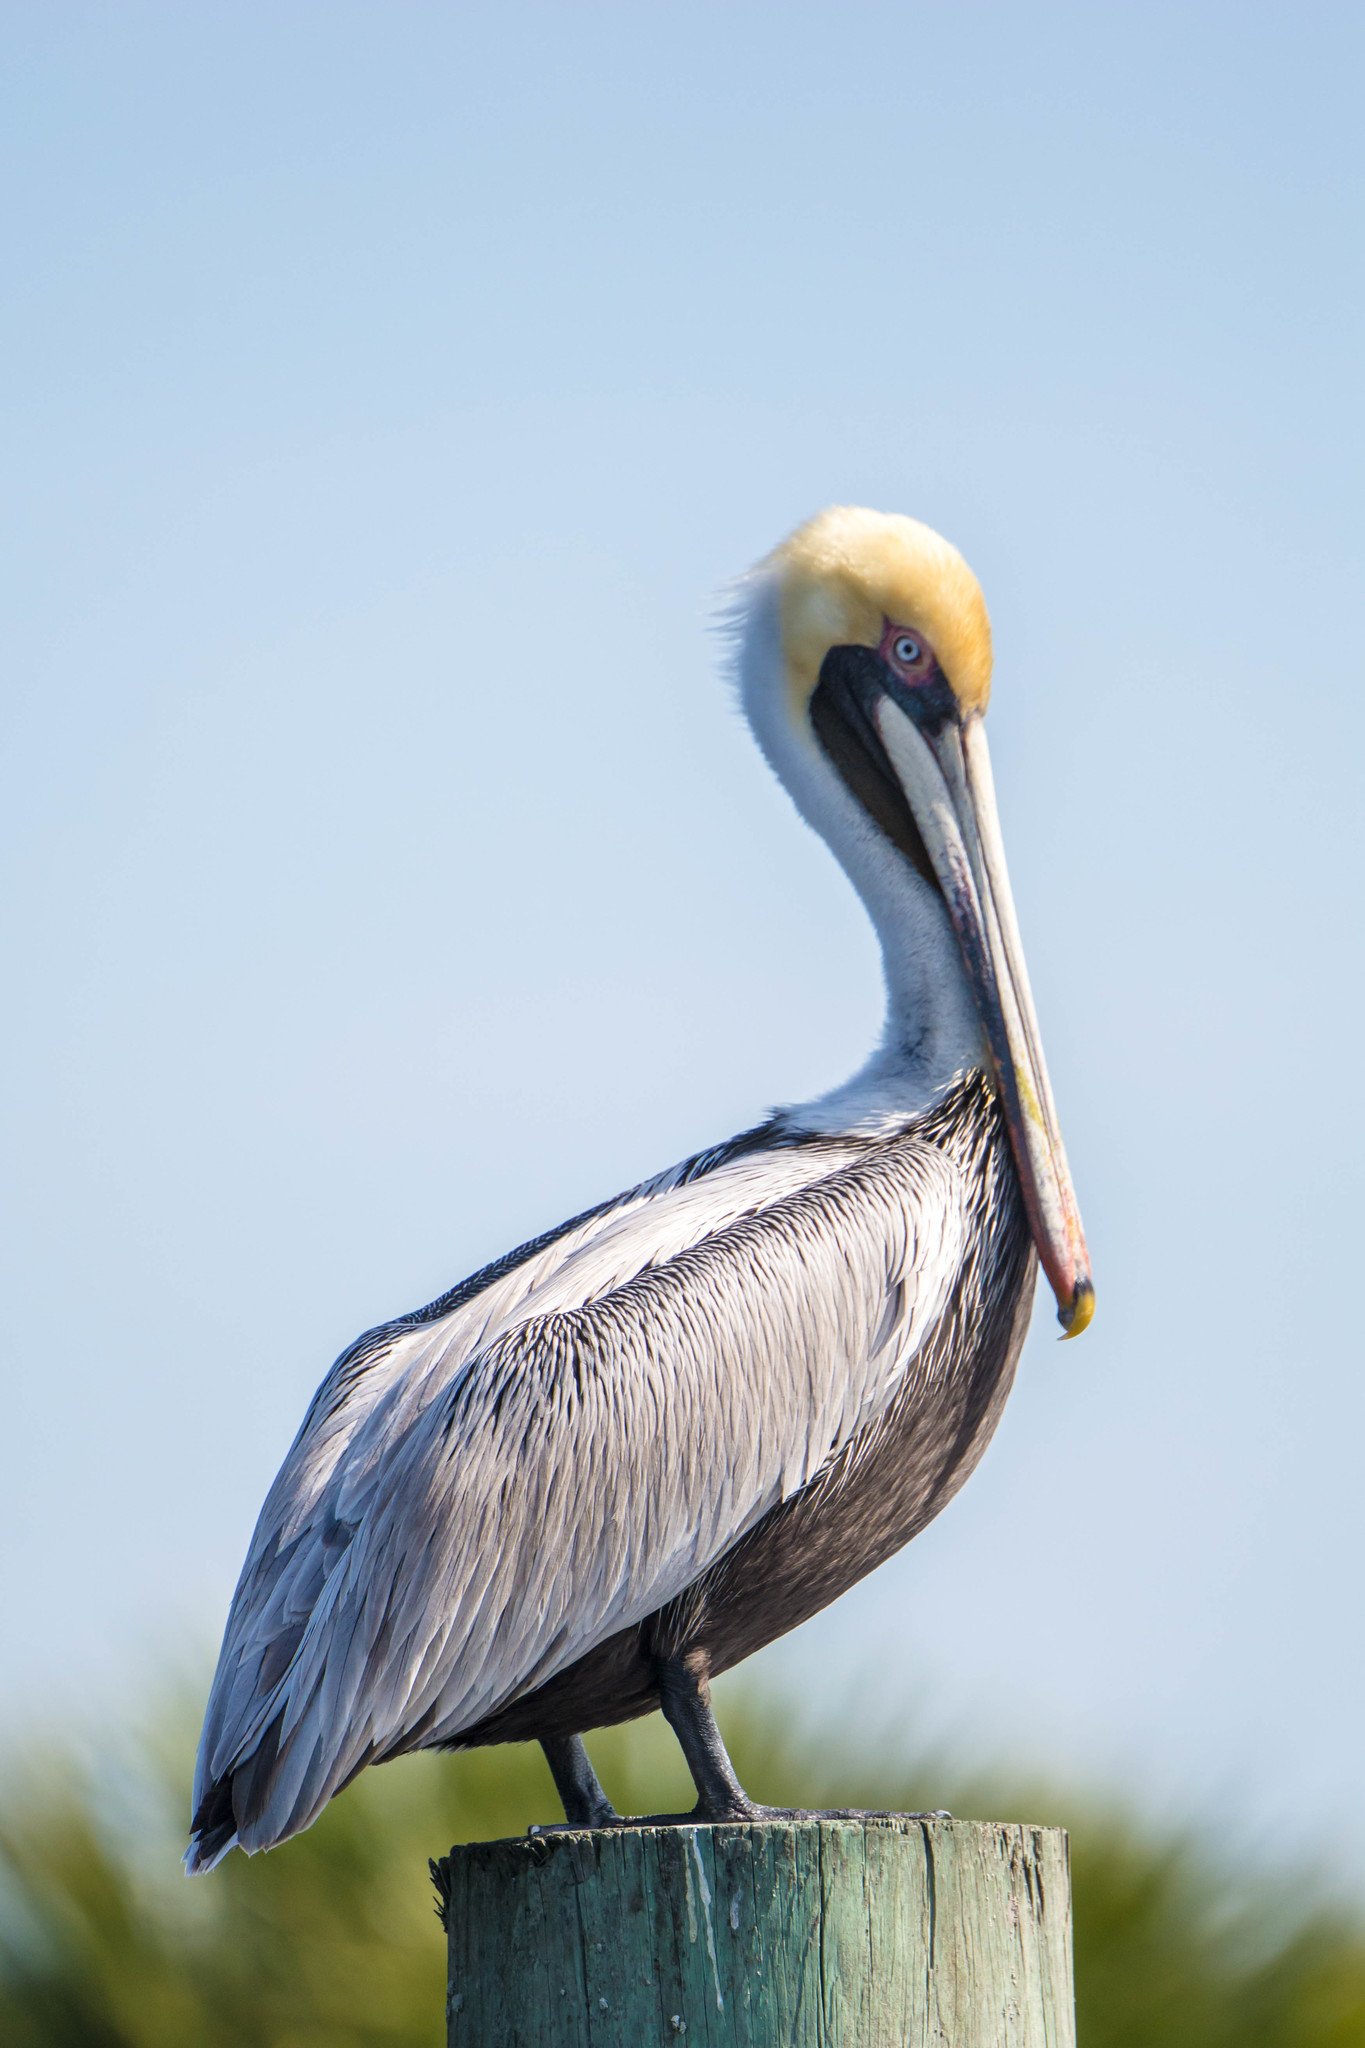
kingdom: Animalia
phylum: Chordata
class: Aves
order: Pelecaniformes
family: Pelecanidae
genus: Pelecanus
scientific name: Pelecanus occidentalis
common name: Brown pelican
